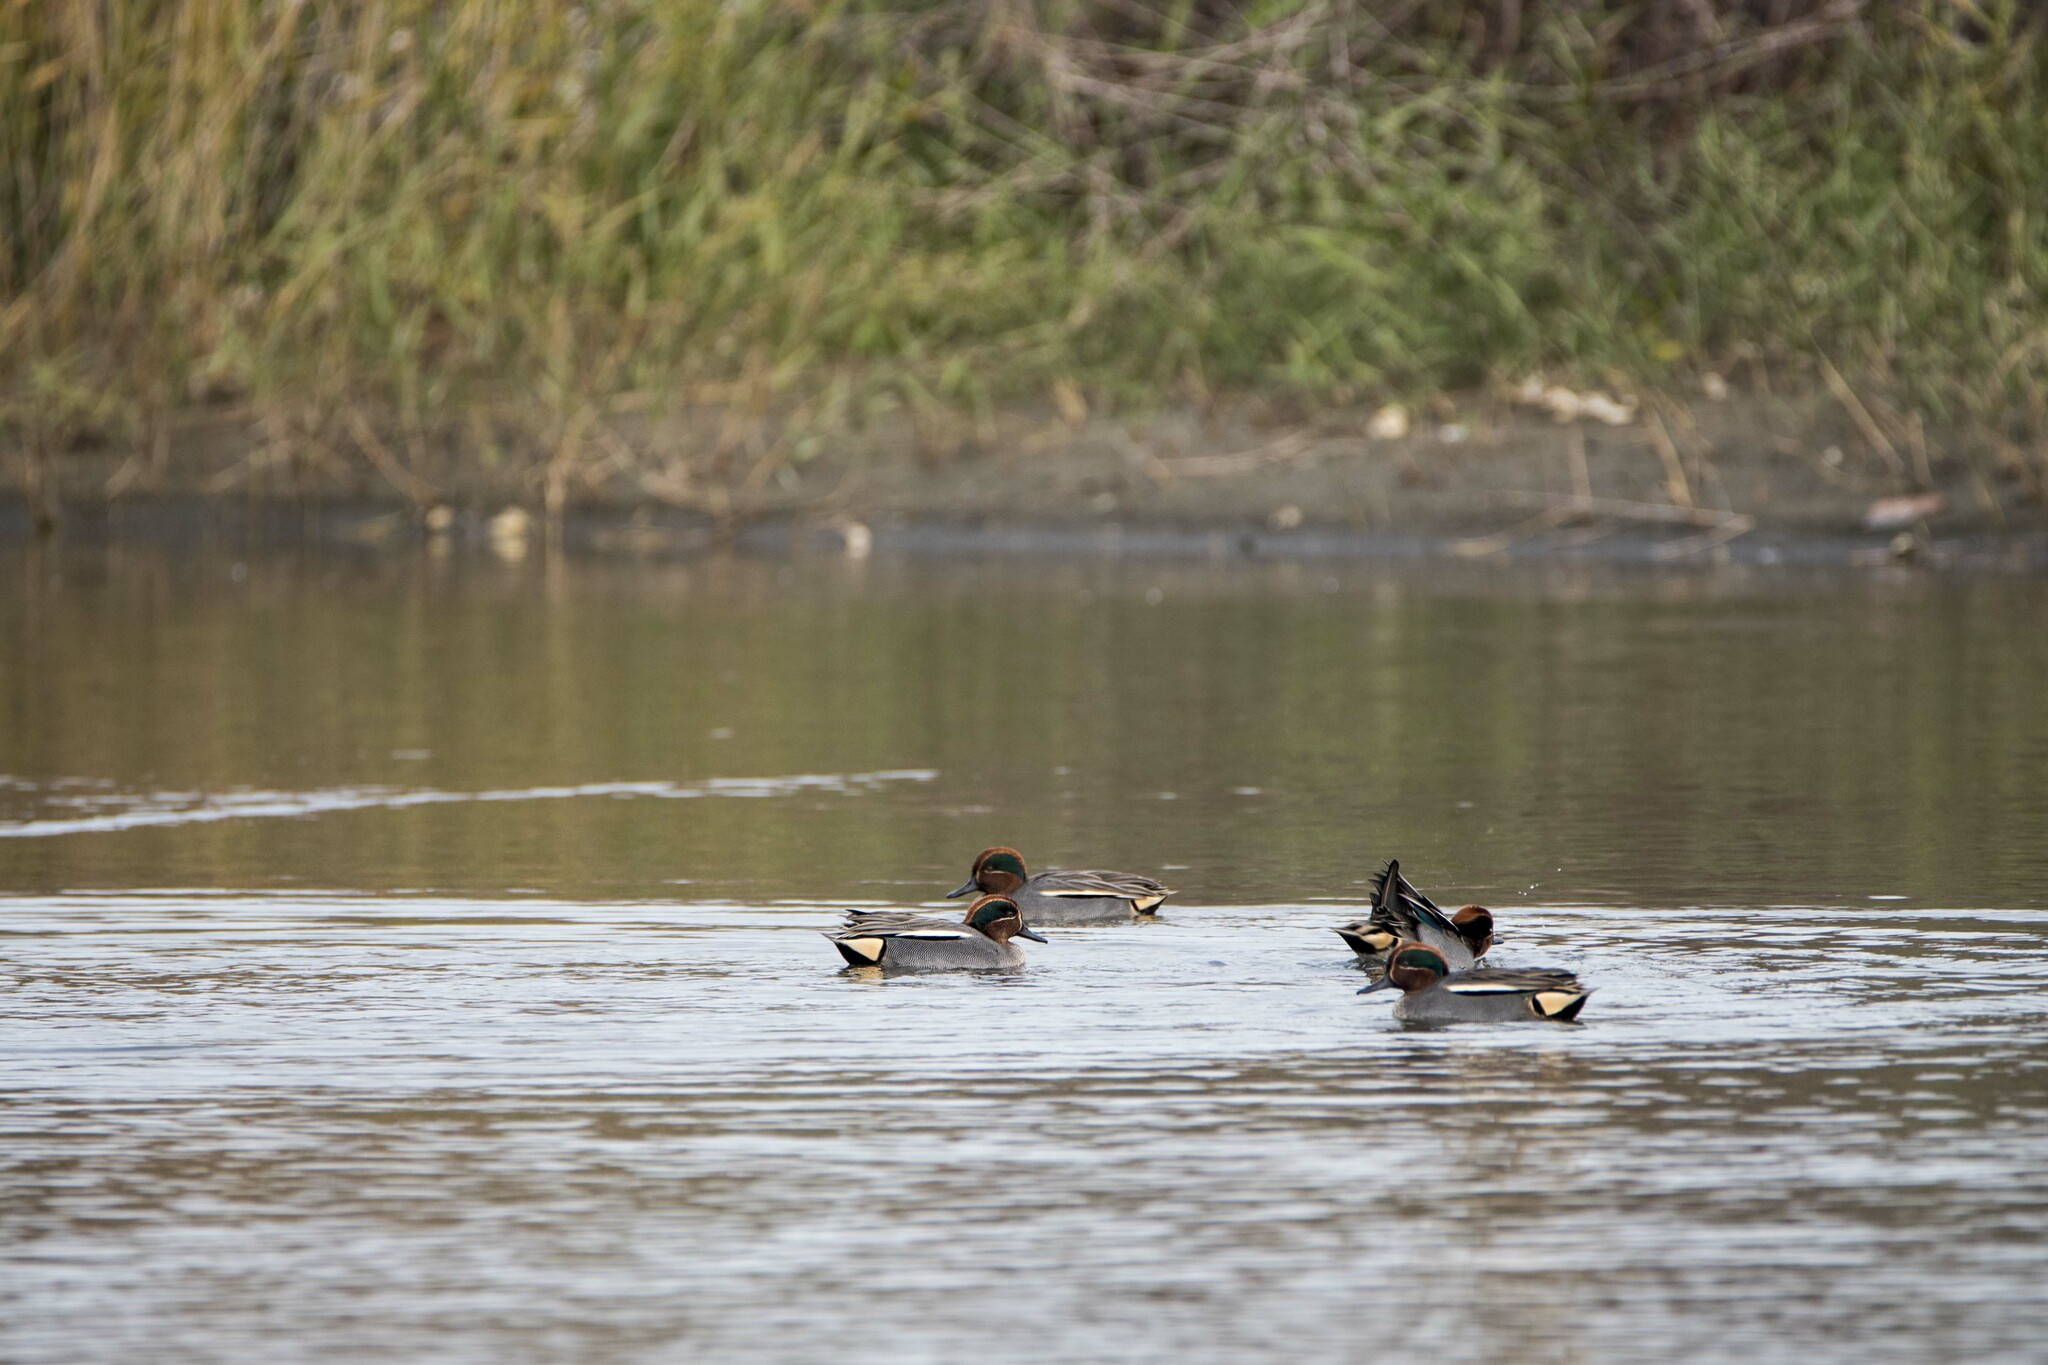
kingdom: Animalia
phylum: Chordata
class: Aves
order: Anseriformes
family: Anatidae
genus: Anas
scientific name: Anas crecca
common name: Eurasian teal
